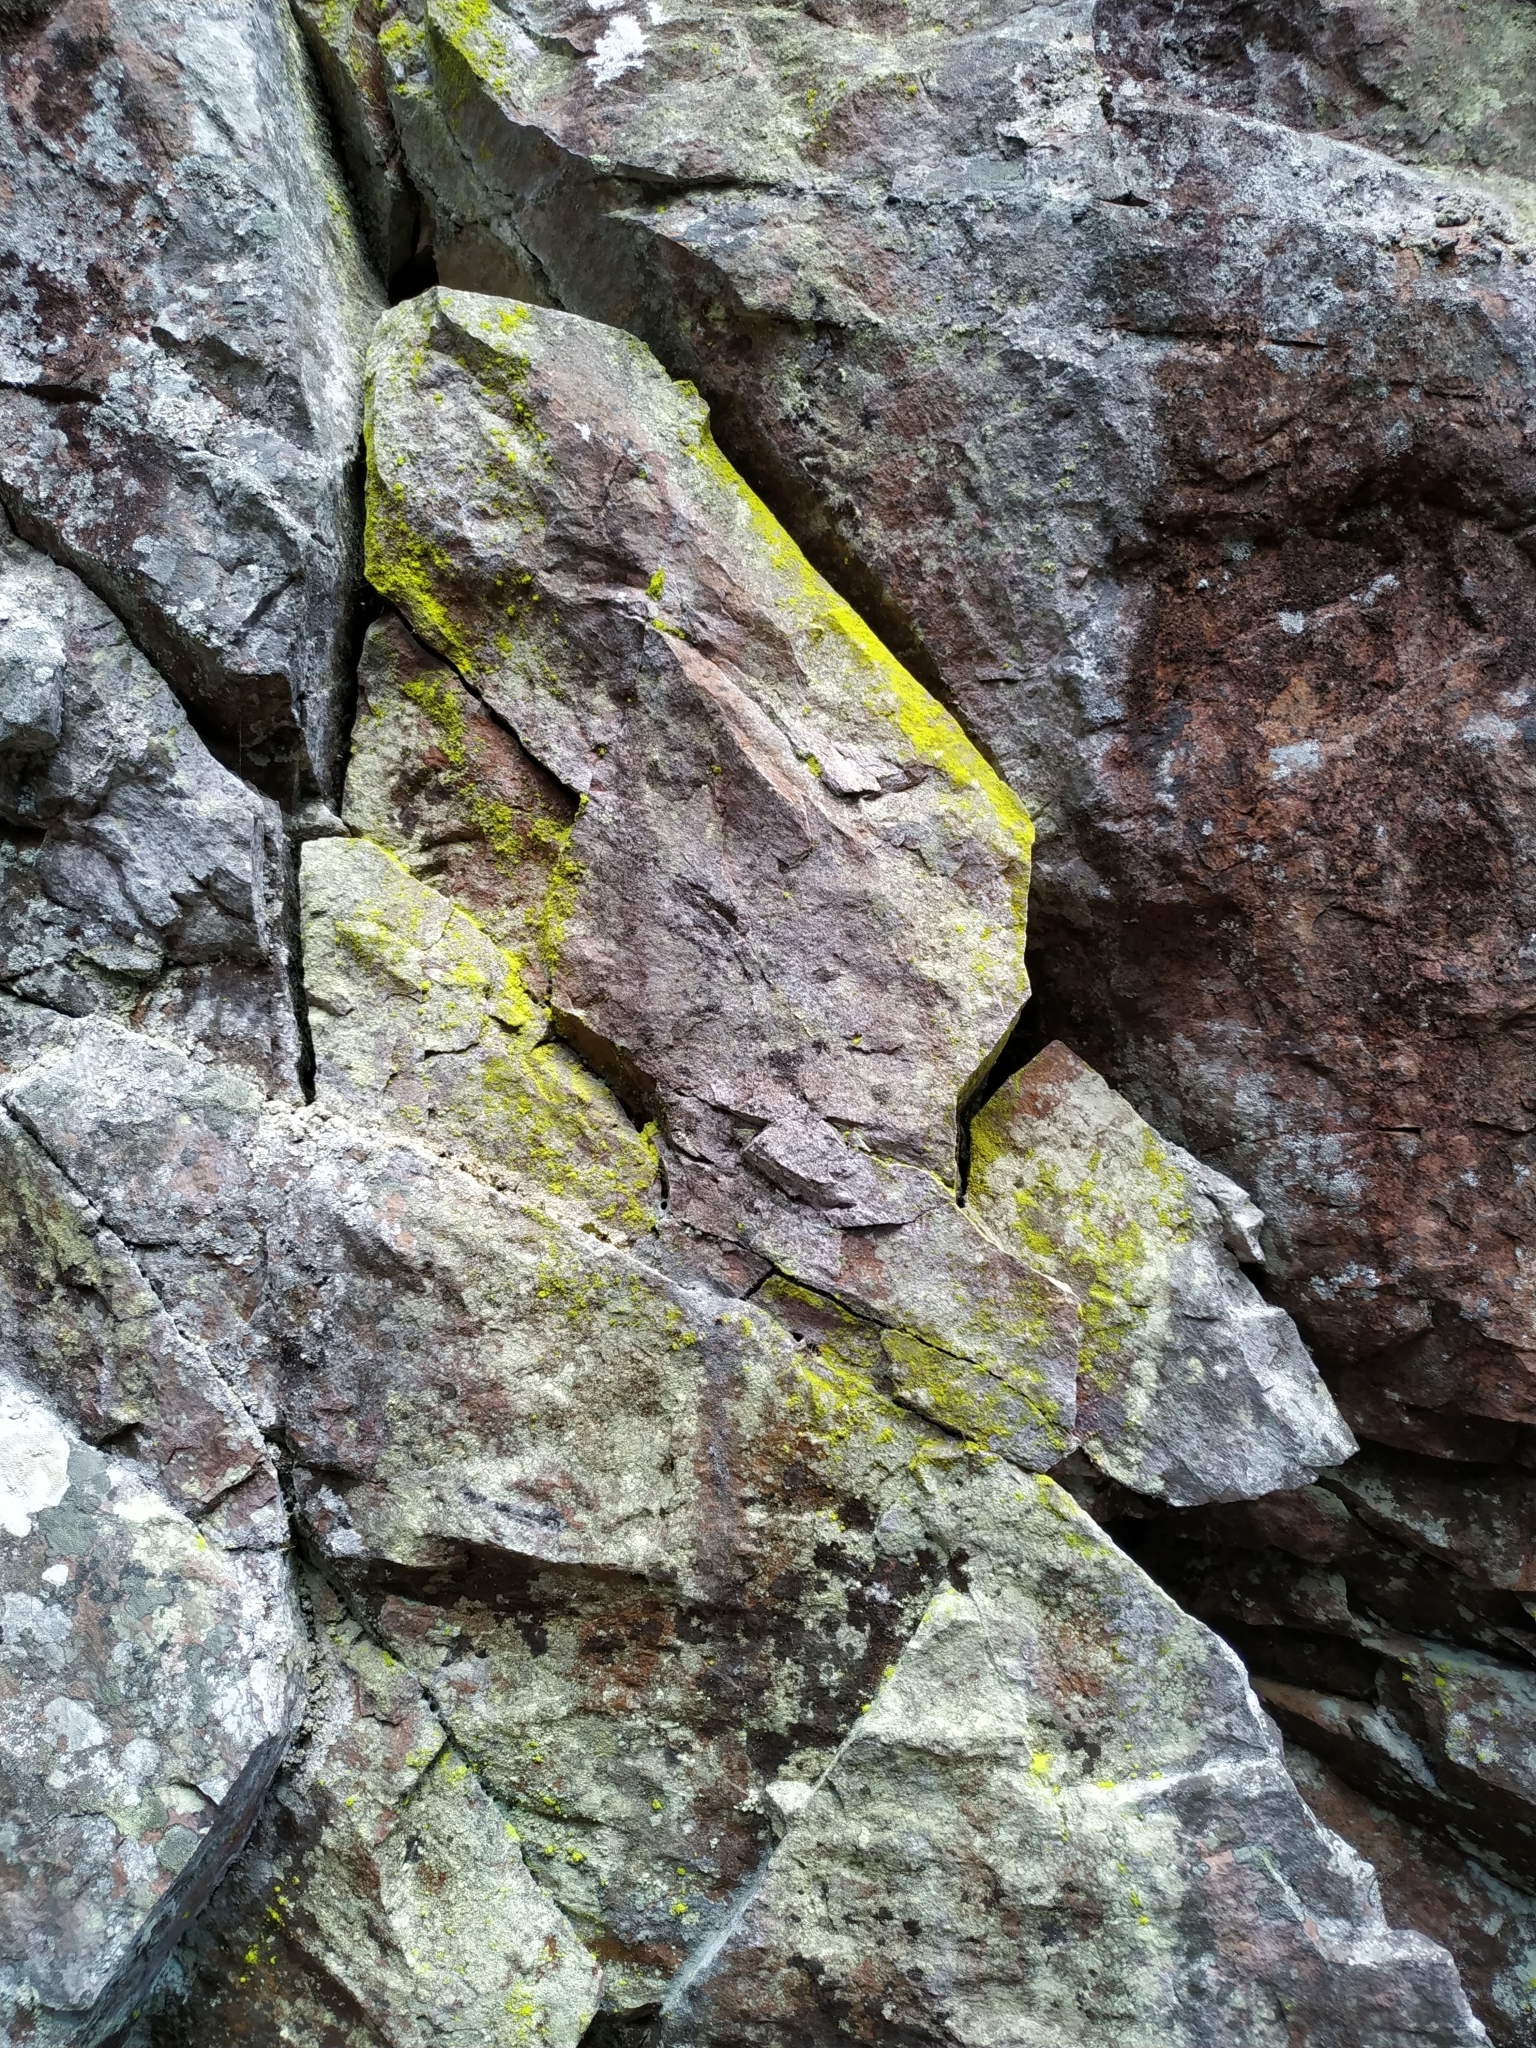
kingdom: Fungi
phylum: Ascomycota
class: Lecanoromycetes
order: Lecanorales
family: Psilolechiaceae
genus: Psilolechia
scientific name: Psilolechia lucida
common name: Sulphur dust lichen
